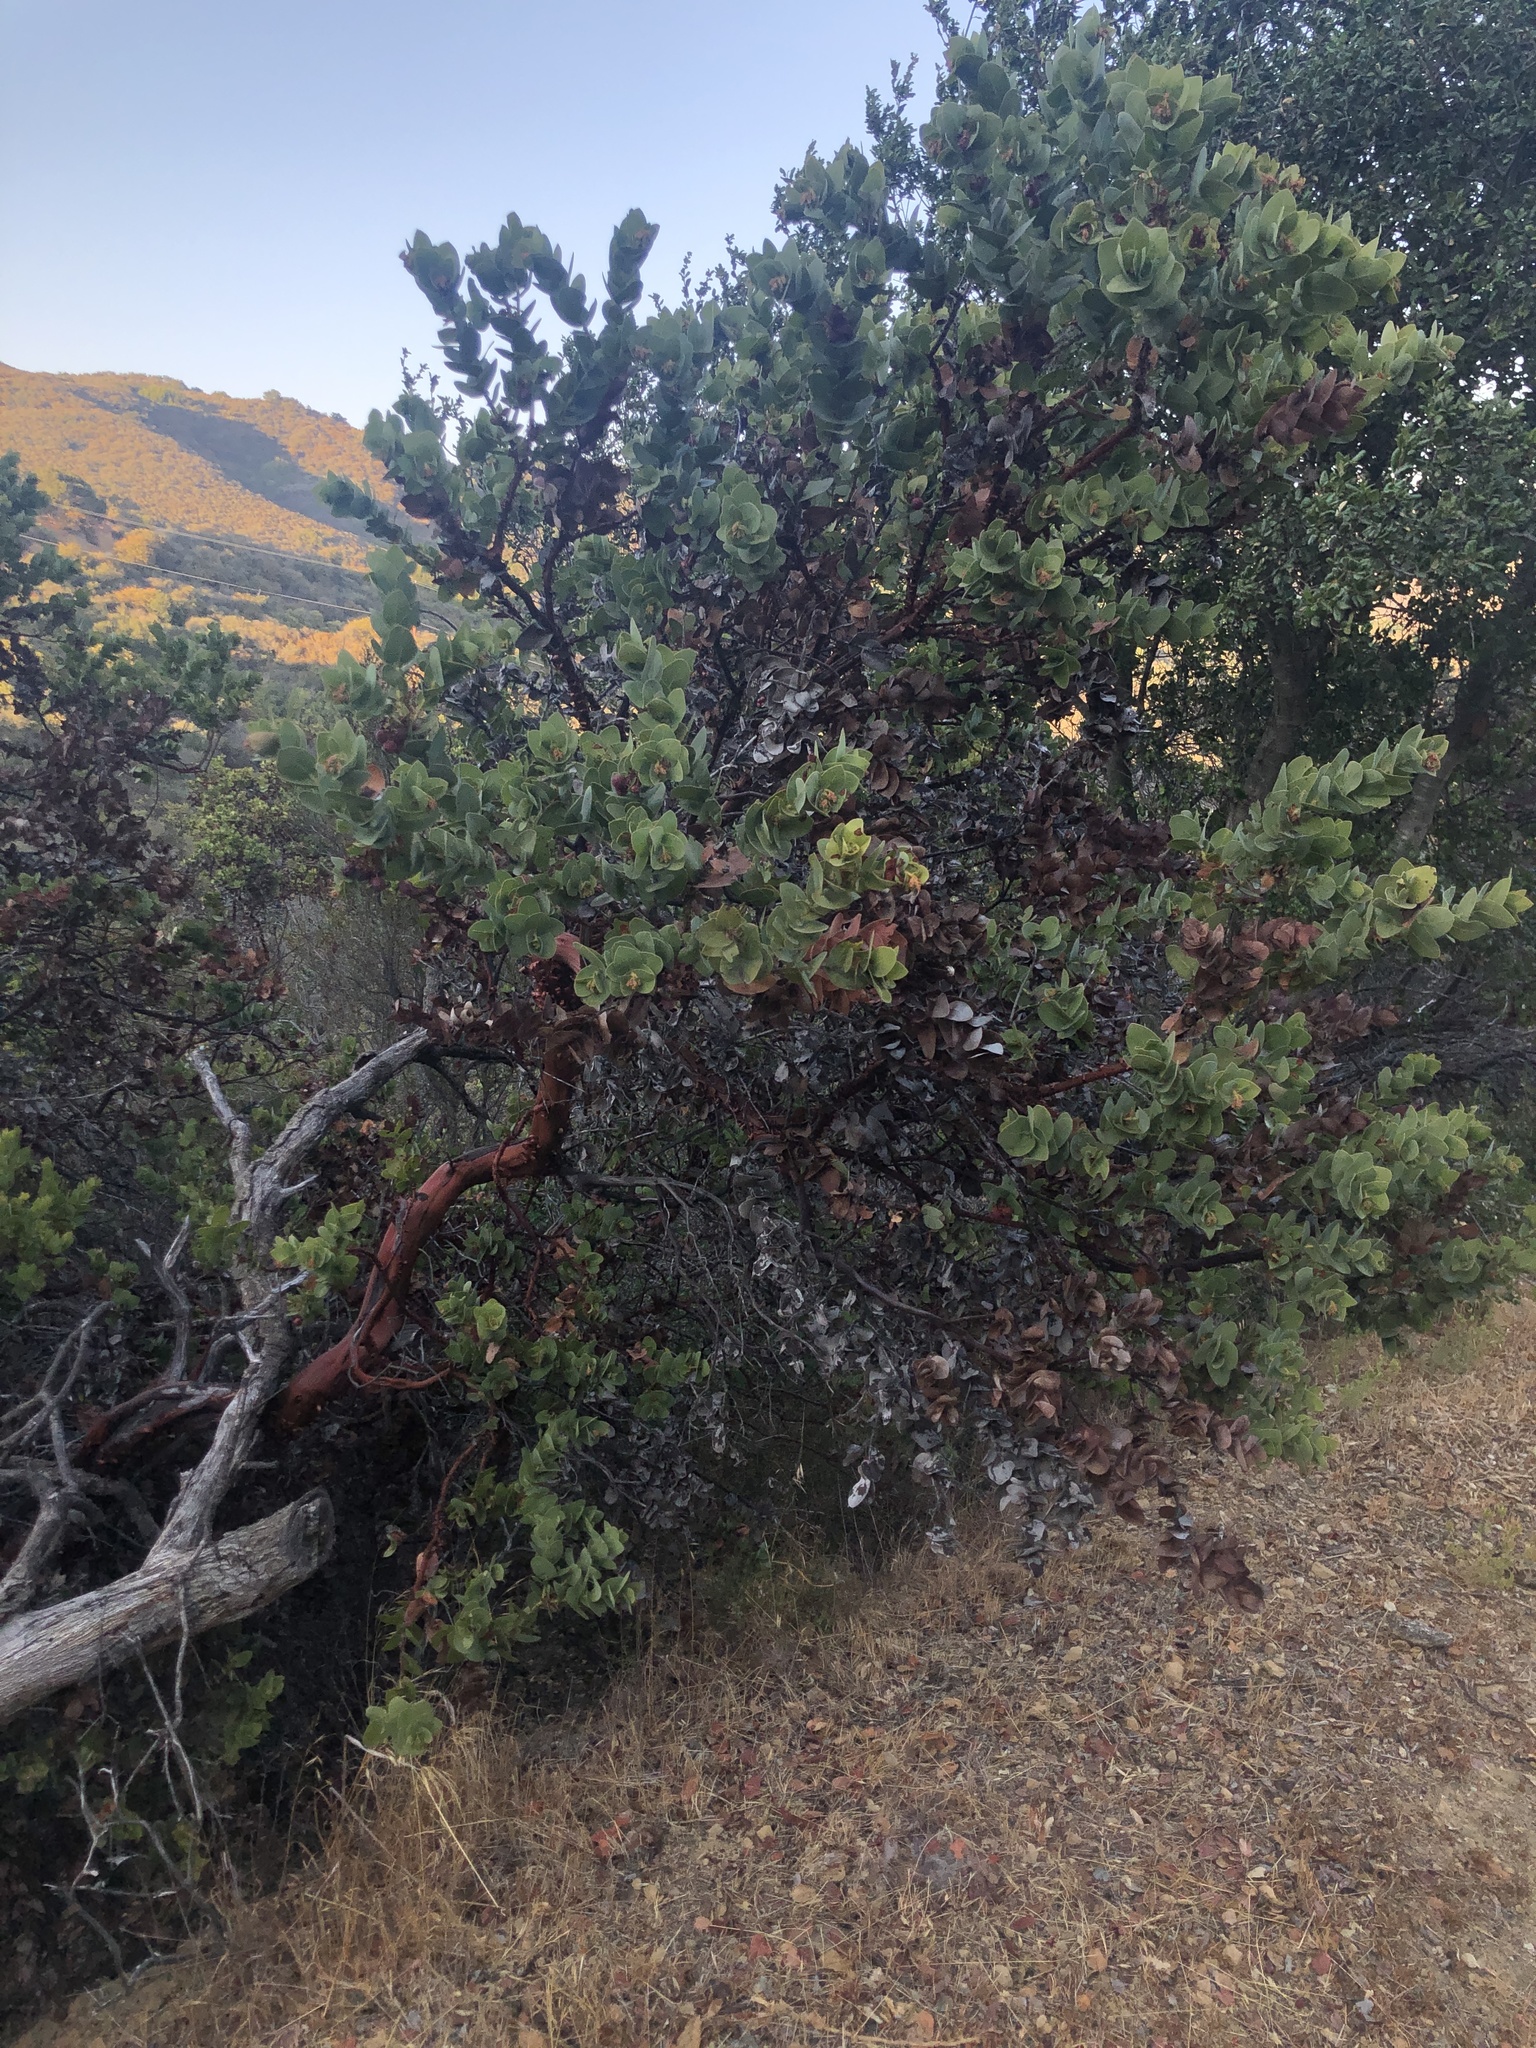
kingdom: Plantae
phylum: Tracheophyta
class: Magnoliopsida
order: Ericales
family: Ericaceae
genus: Arctostaphylos
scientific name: Arctostaphylos refugioensis
